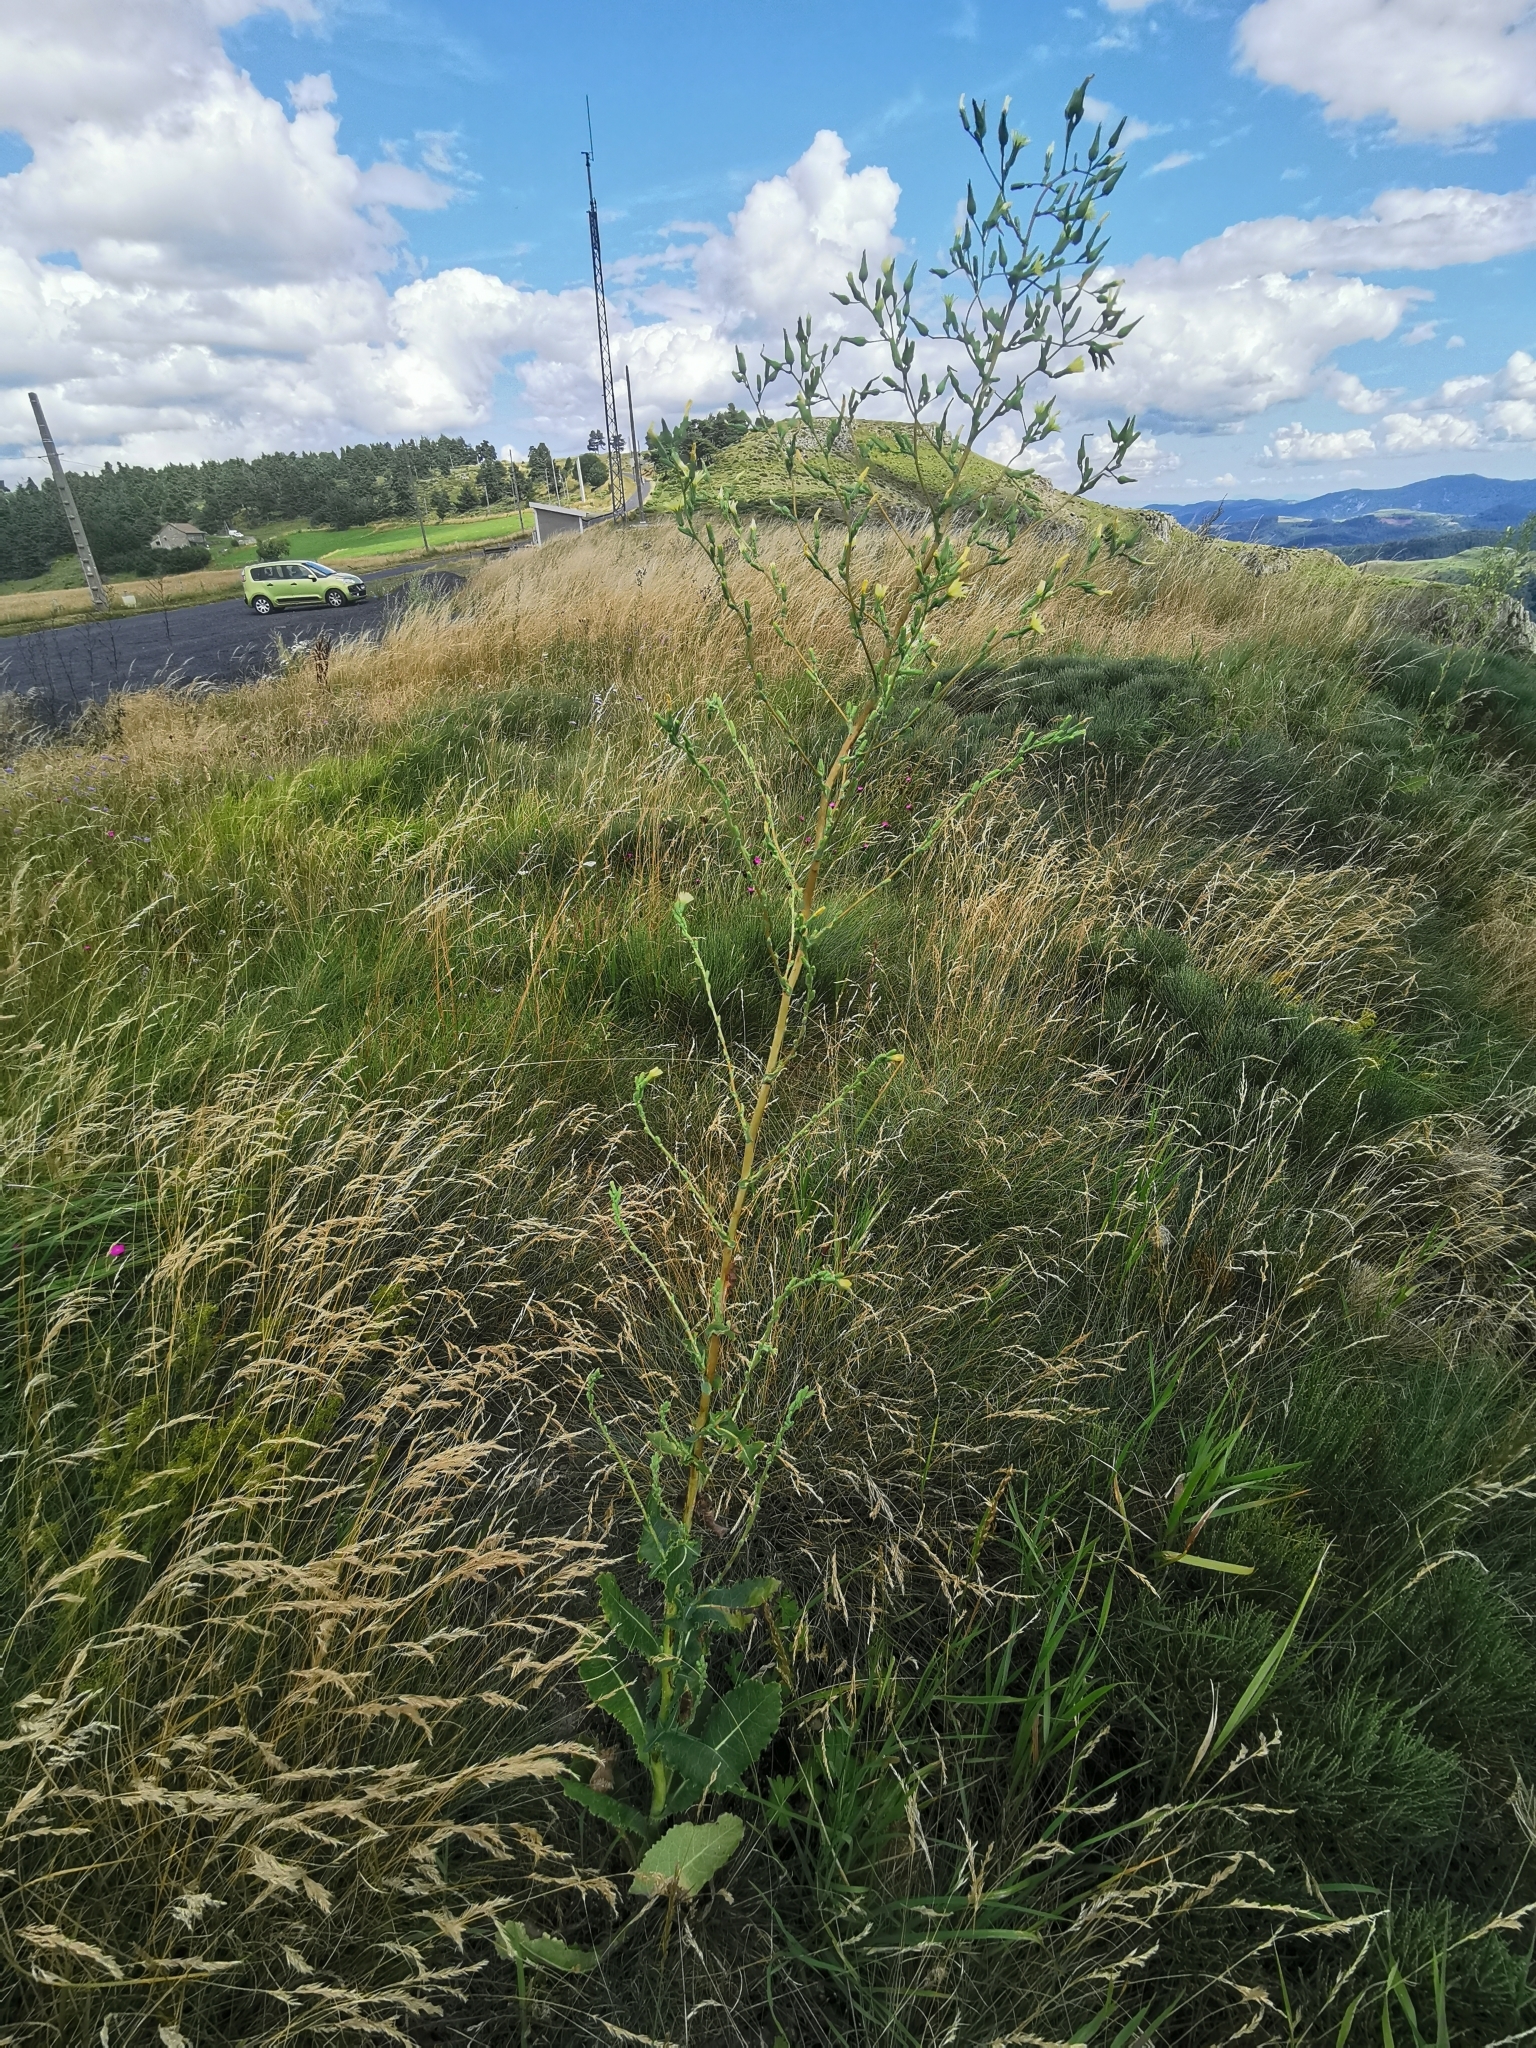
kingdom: Plantae
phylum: Tracheophyta
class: Magnoliopsida
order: Asterales
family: Asteraceae
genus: Lactuca
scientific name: Lactuca serriola
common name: Prickly lettuce
